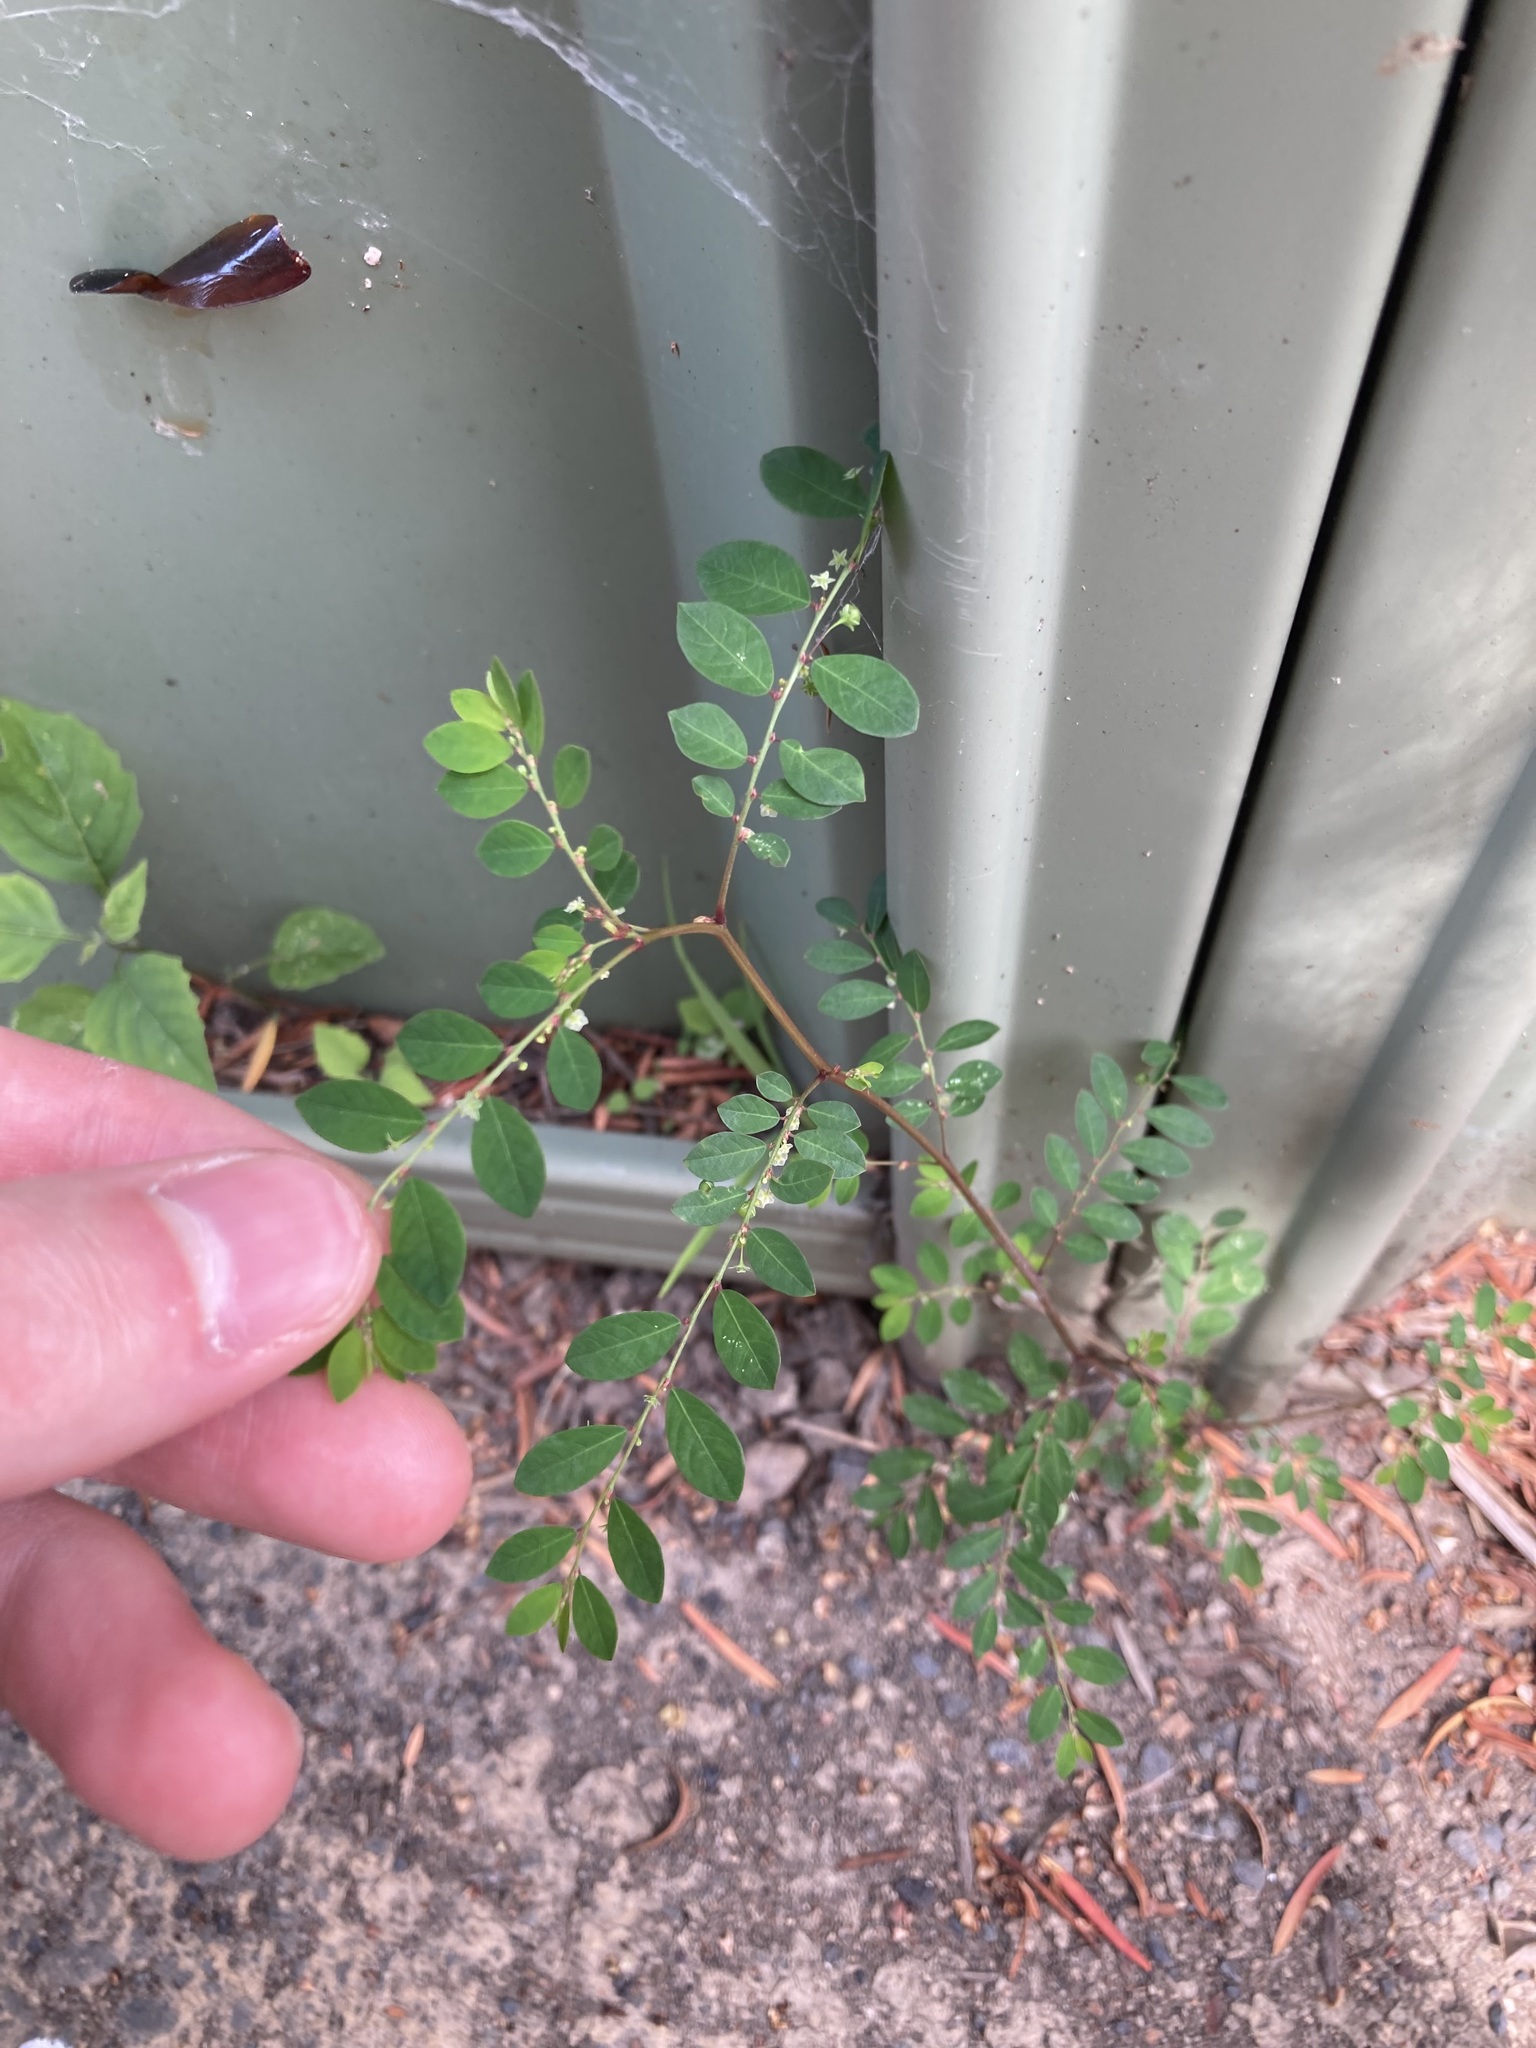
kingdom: Plantae
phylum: Tracheophyta
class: Magnoliopsida
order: Malpighiales
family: Phyllanthaceae
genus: Phyllanthus
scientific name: Phyllanthus tenellus
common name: Mascarene island leaf-flower
